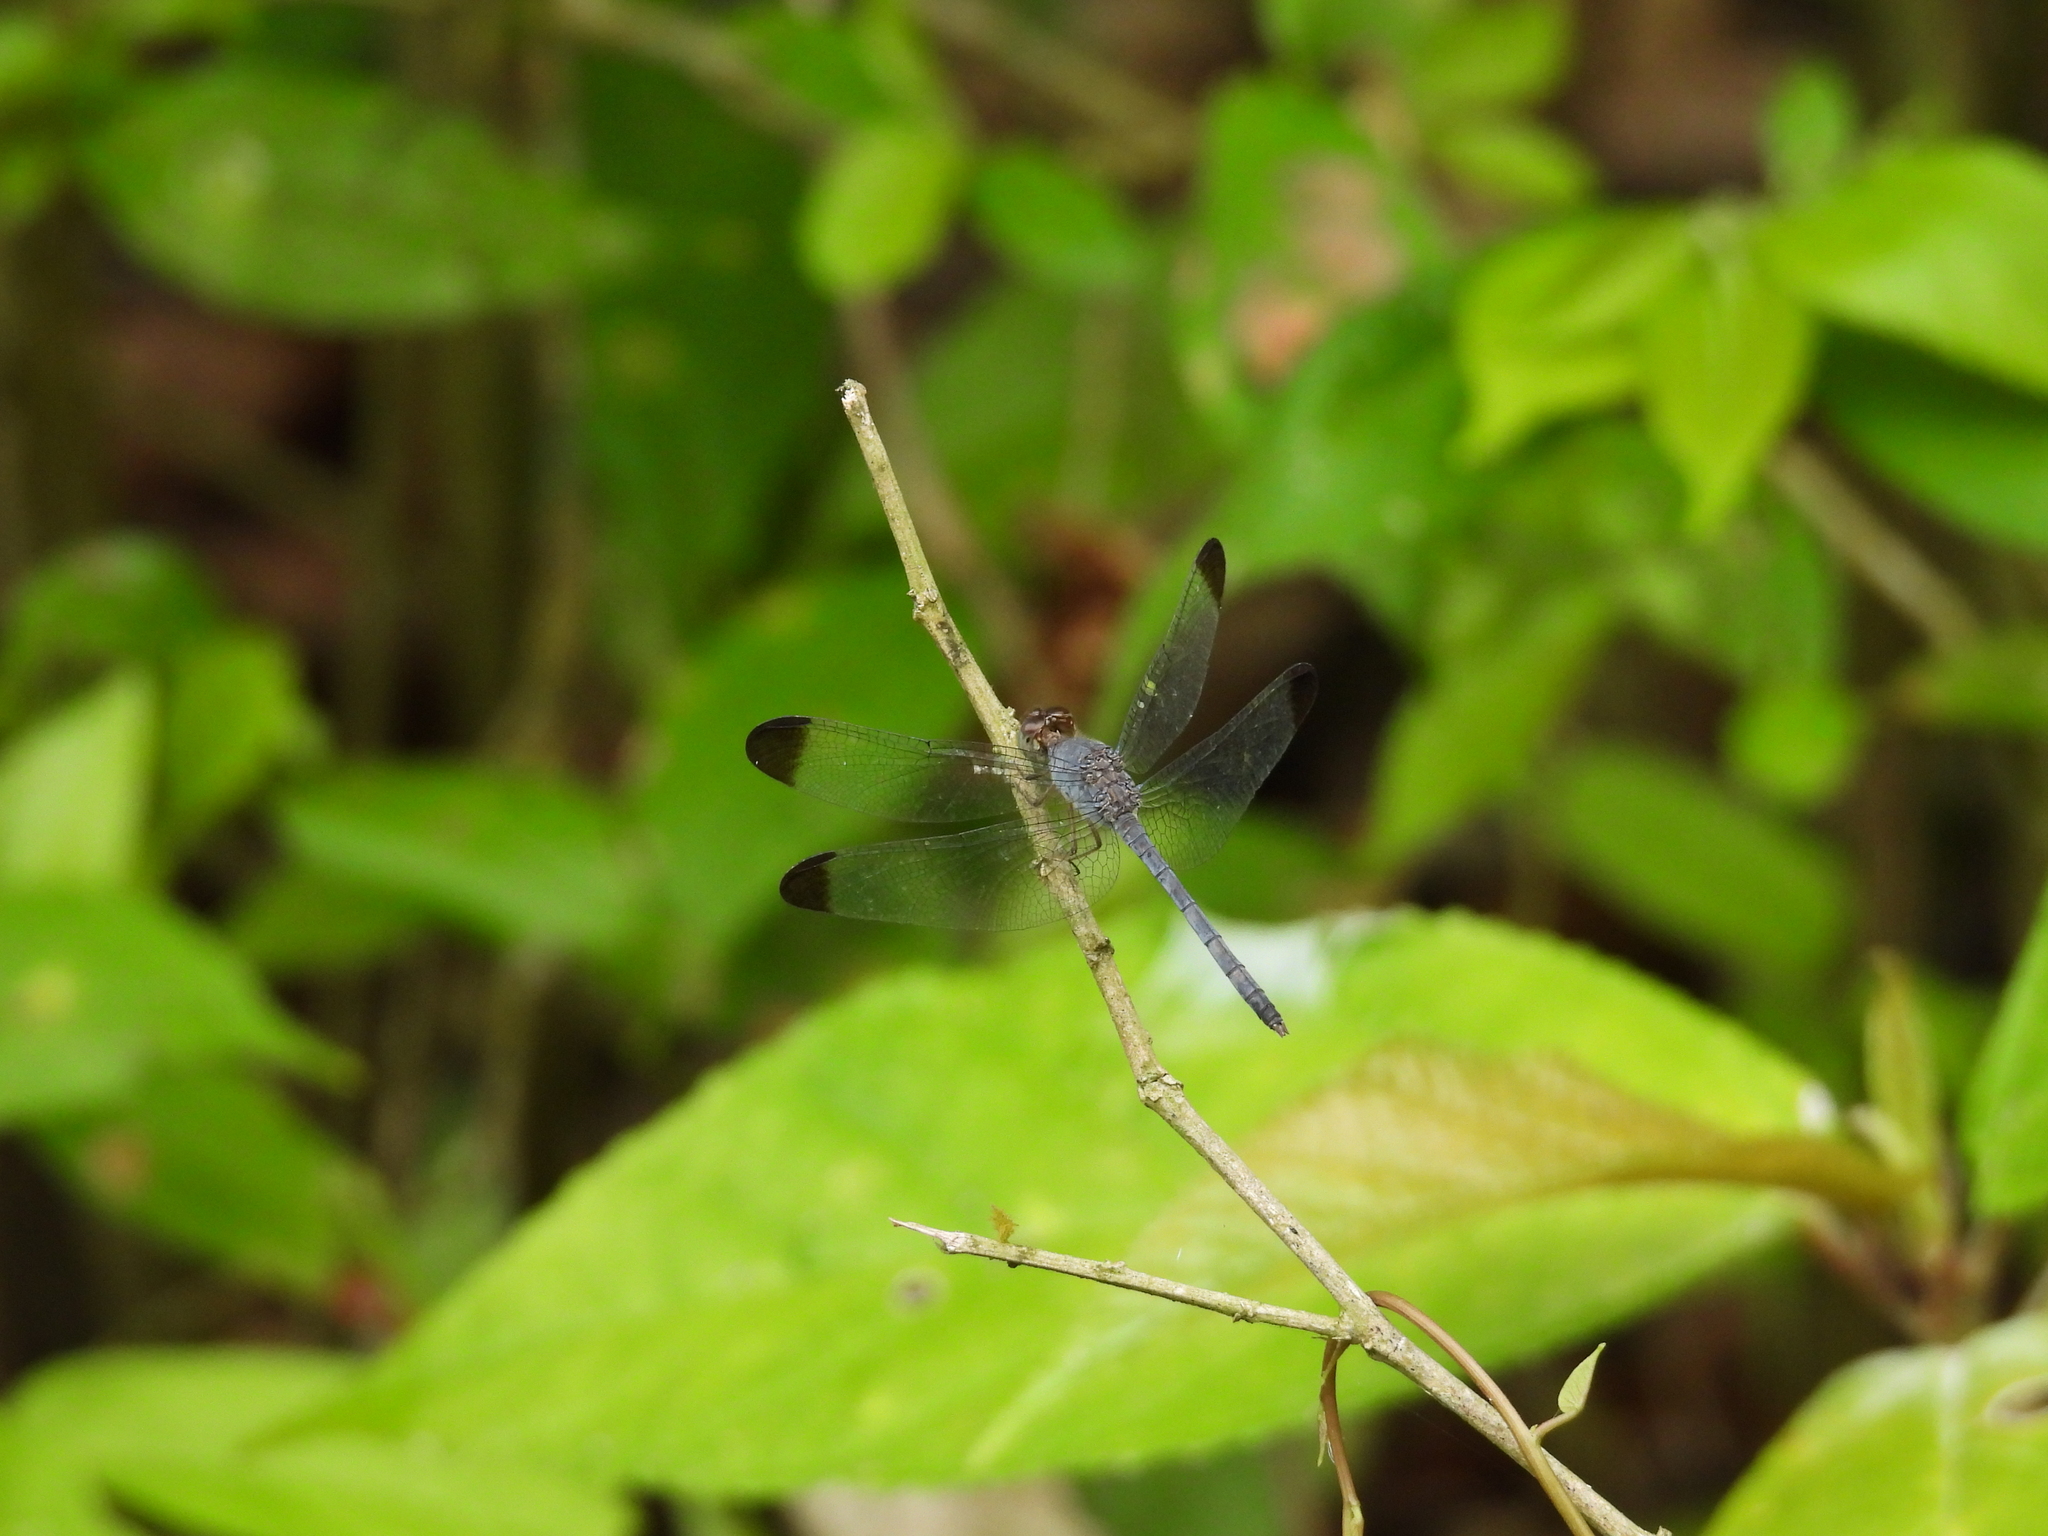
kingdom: Animalia
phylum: Arthropoda
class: Insecta
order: Odonata
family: Libellulidae
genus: Uracis
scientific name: Uracis imbuta
